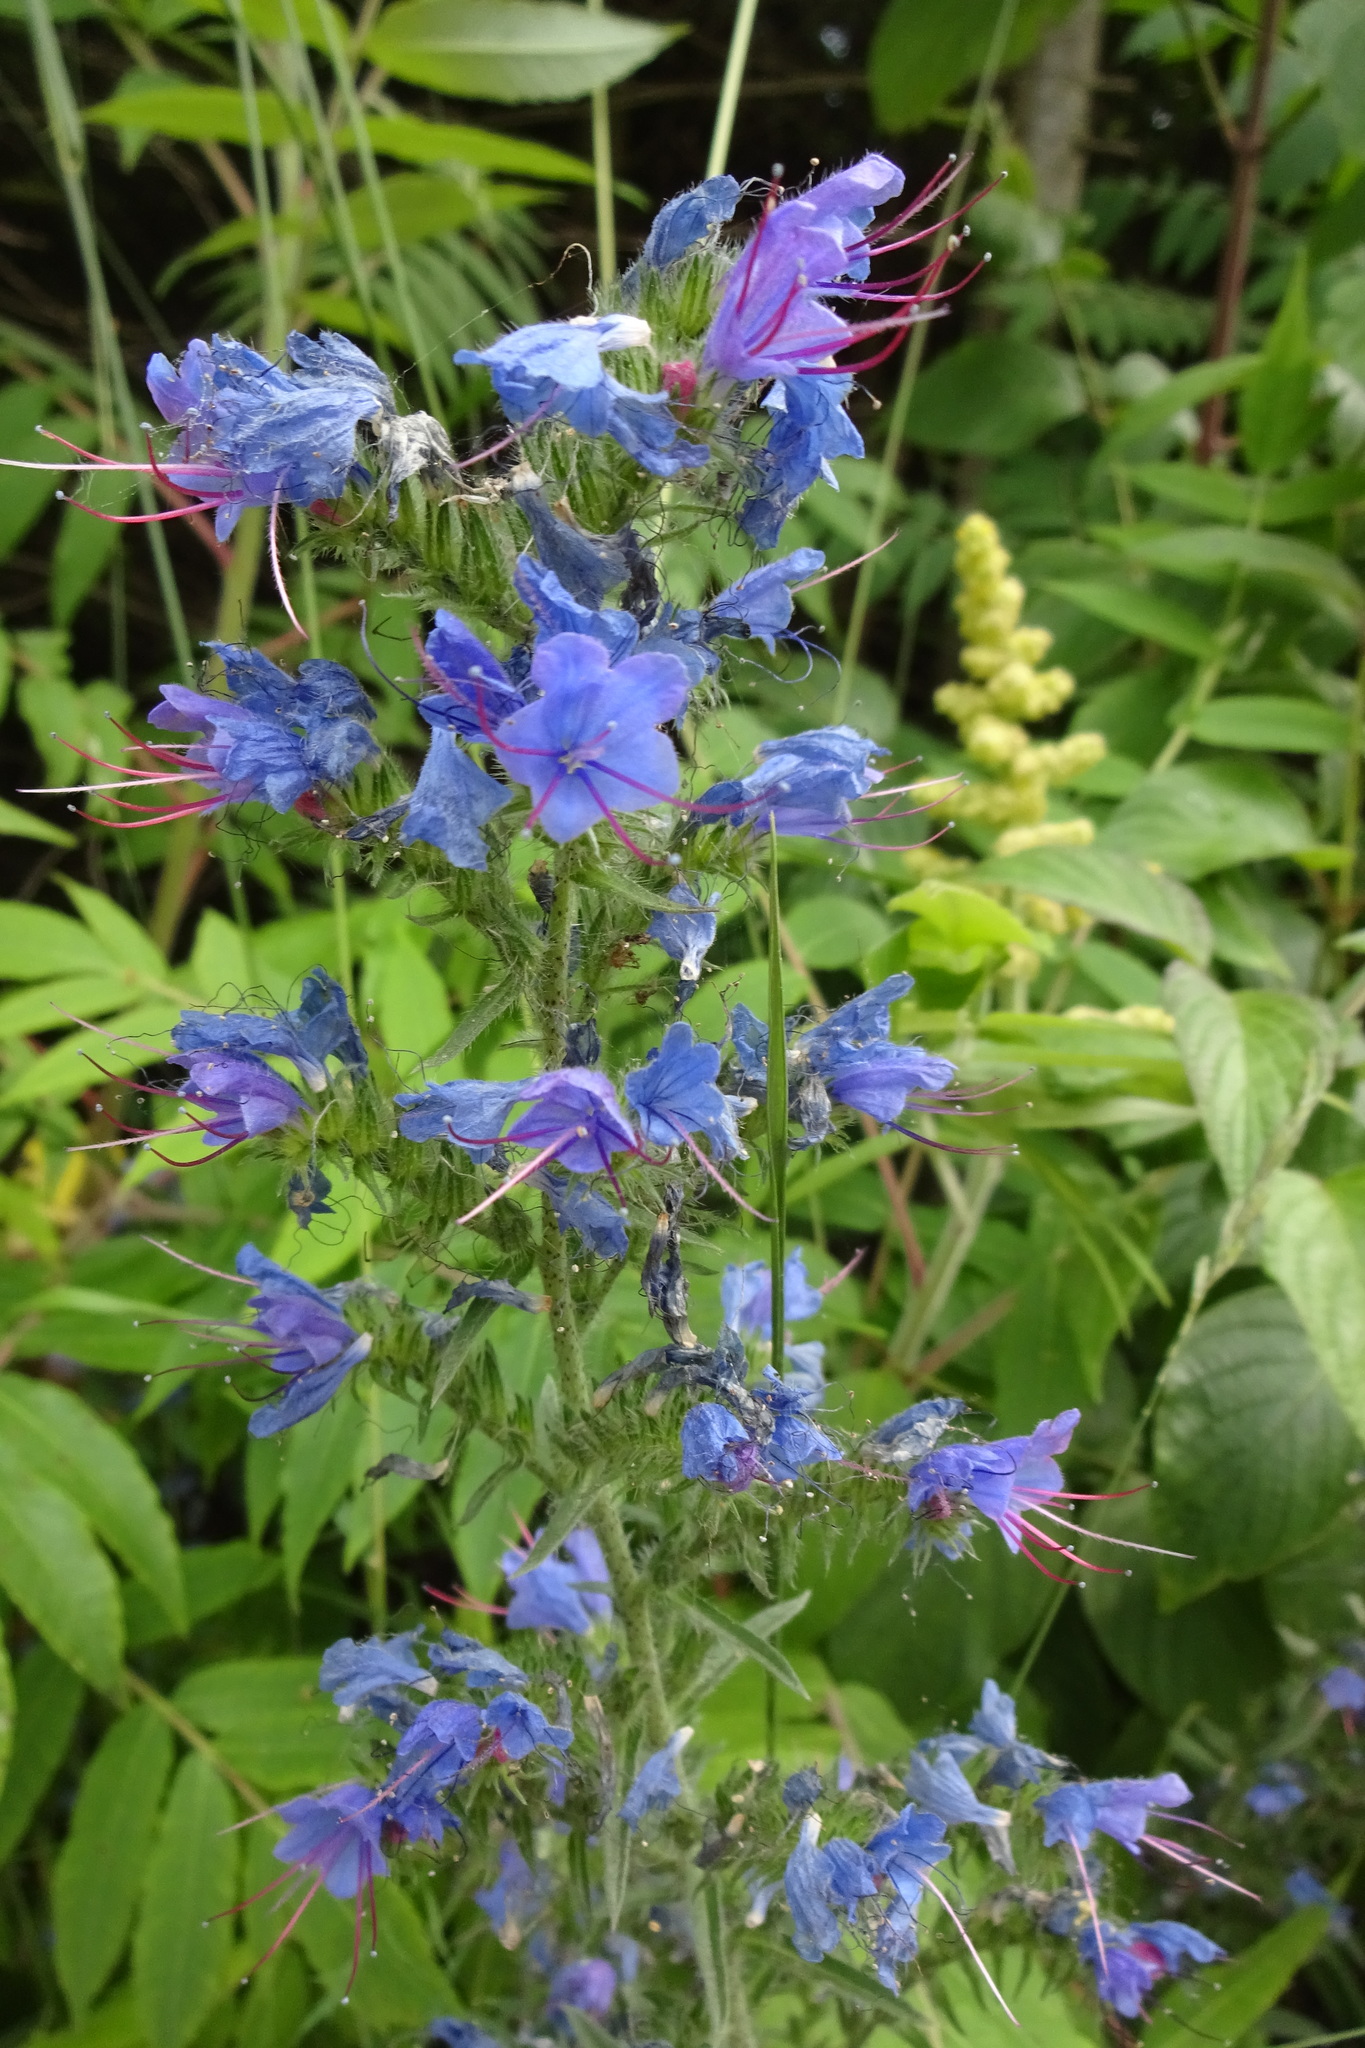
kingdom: Plantae
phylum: Tracheophyta
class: Magnoliopsida
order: Boraginales
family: Boraginaceae
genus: Echium
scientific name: Echium vulgare
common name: Common viper's bugloss
